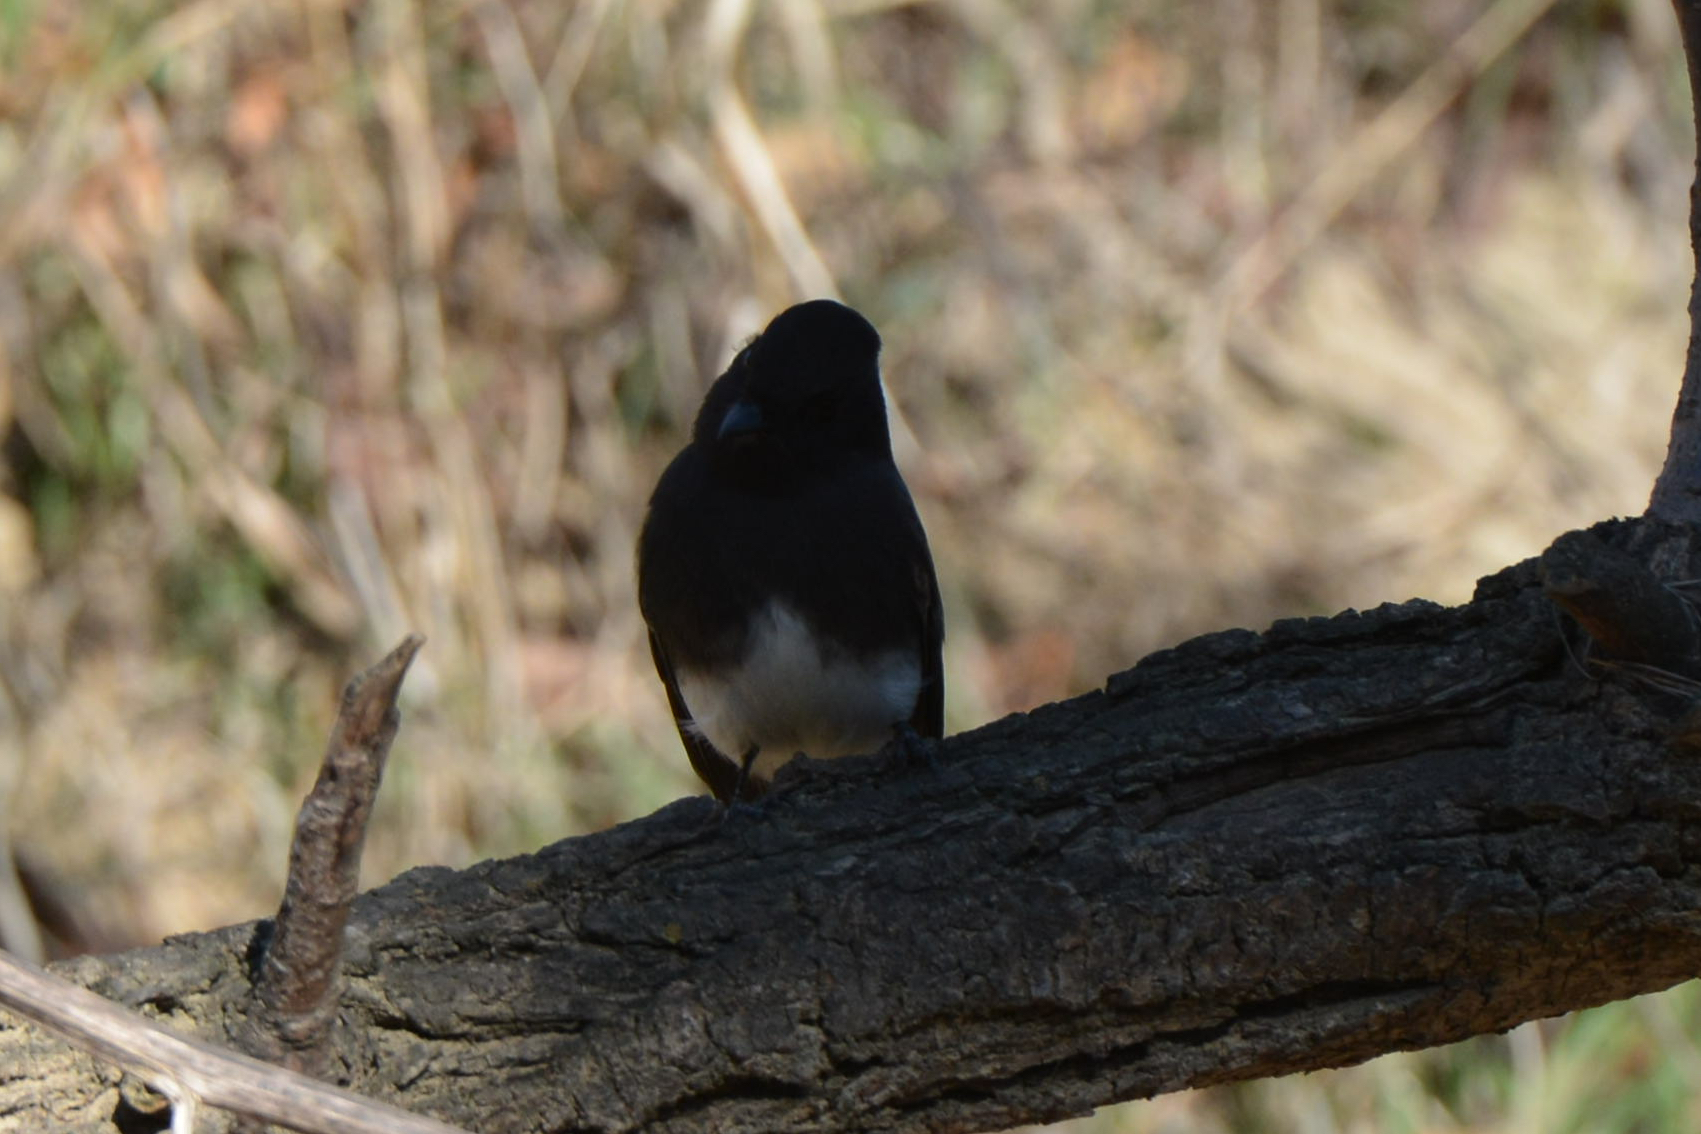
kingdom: Animalia
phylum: Chordata
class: Aves
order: Passeriformes
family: Tyrannidae
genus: Sayornis
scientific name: Sayornis nigricans
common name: Black phoebe
